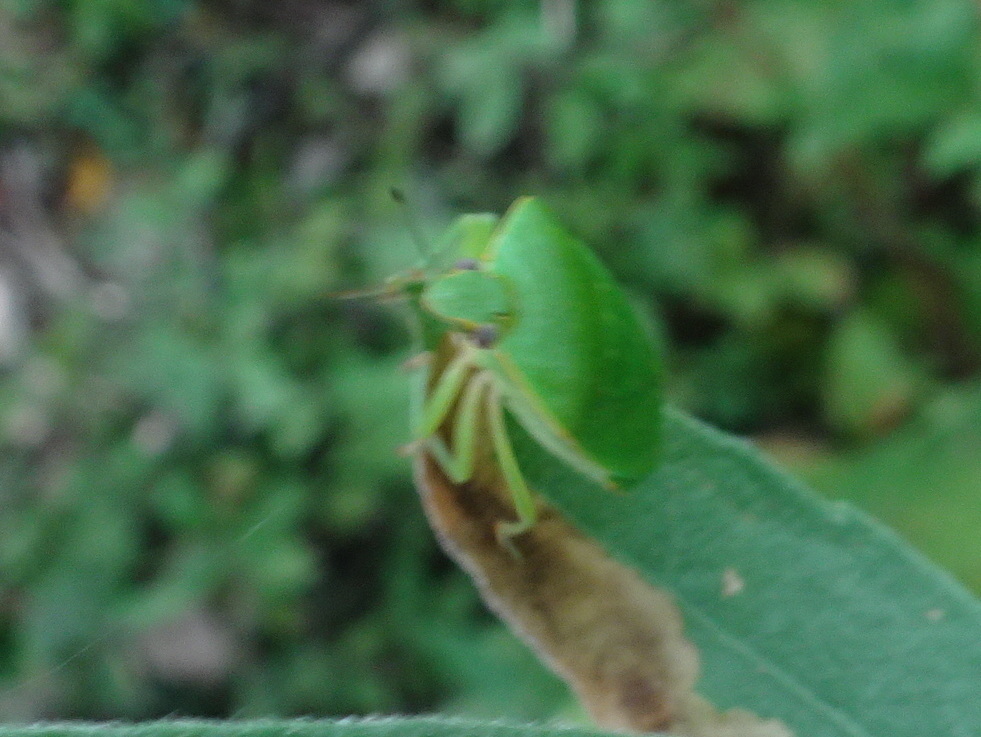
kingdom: Animalia
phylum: Arthropoda
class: Insecta
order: Hemiptera
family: Pentatomidae
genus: Chinavia
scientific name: Chinavia hilaris
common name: Green stink bug
